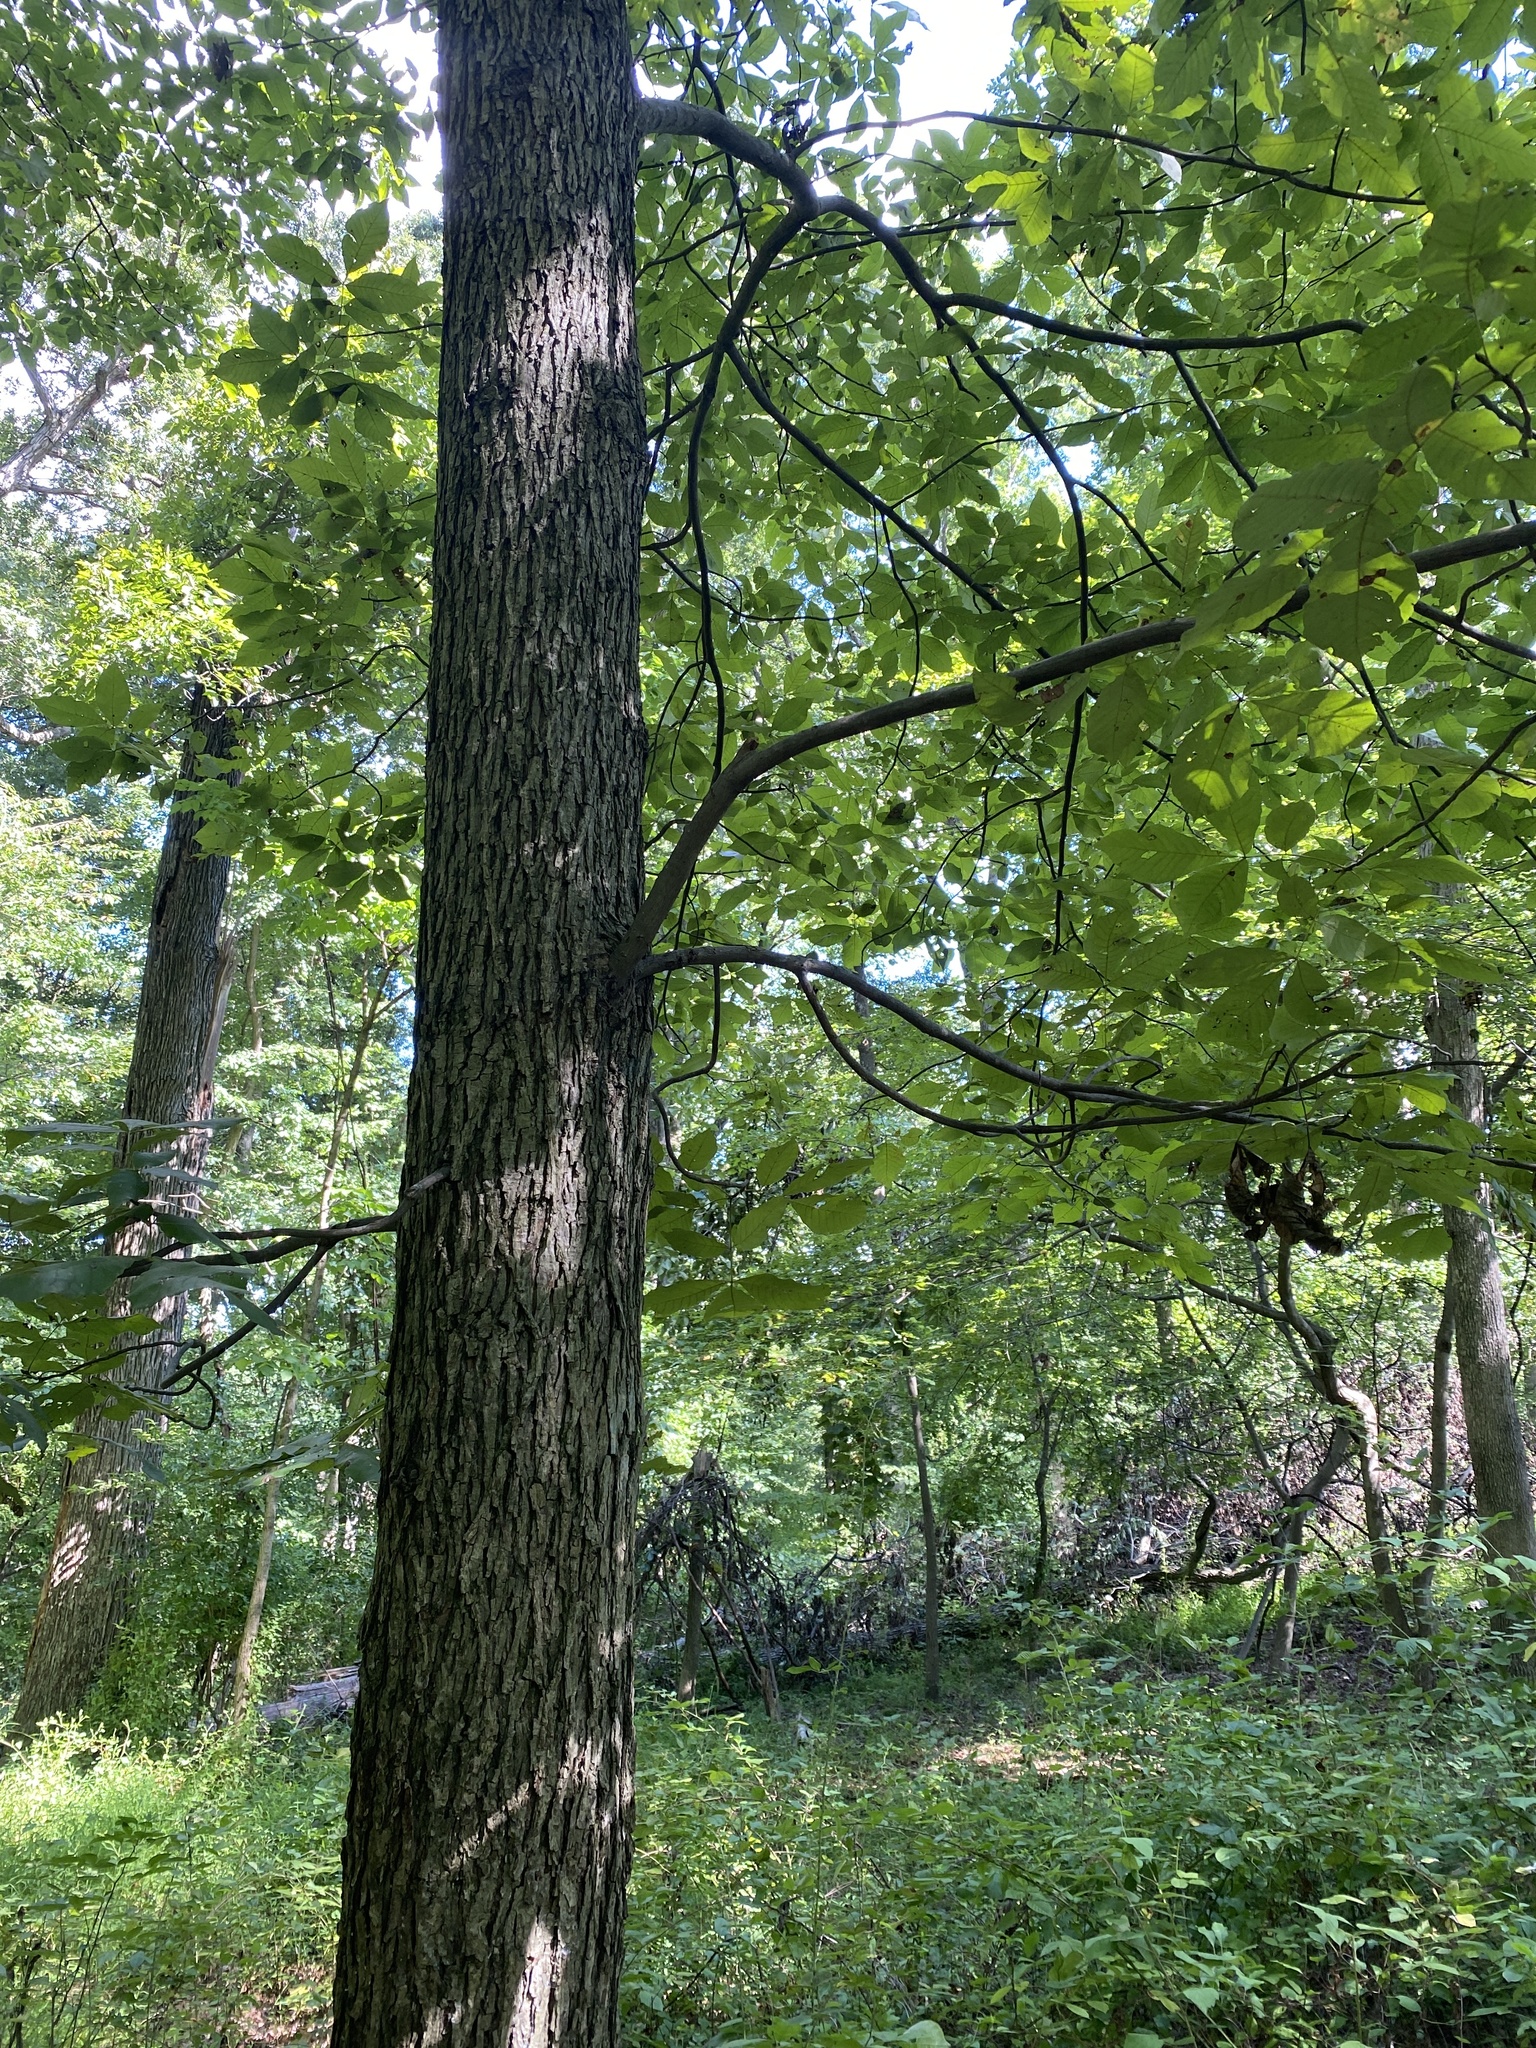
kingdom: Plantae
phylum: Tracheophyta
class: Magnoliopsida
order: Fagales
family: Juglandaceae
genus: Carya
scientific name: Carya glabra
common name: Pignut hickory
